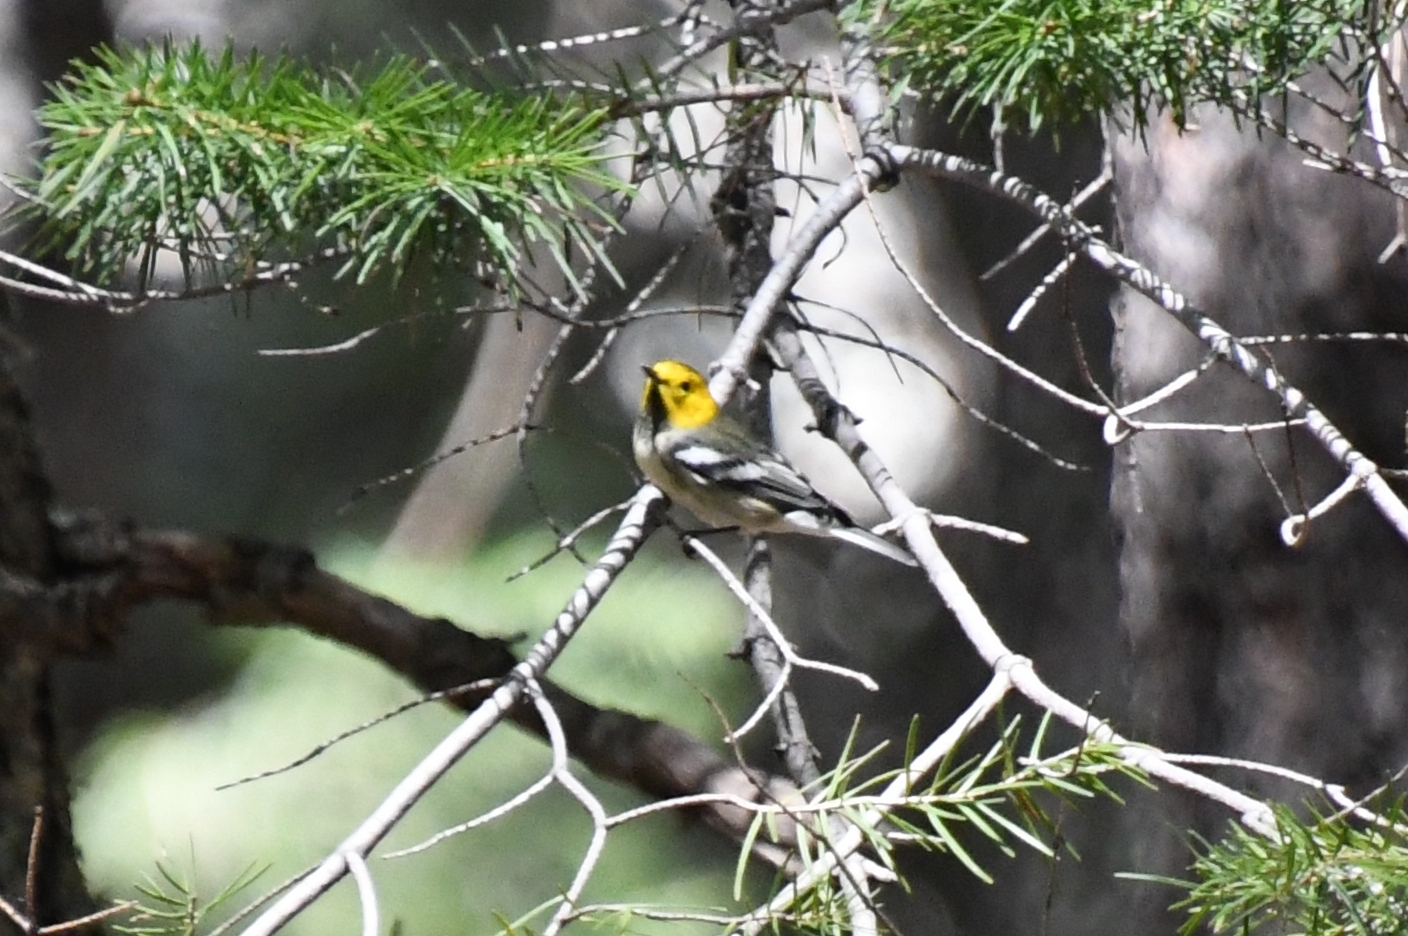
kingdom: Animalia
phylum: Chordata
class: Aves
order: Passeriformes
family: Parulidae
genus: Setophaga
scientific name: Setophaga occidentalis
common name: Hermit warbler
